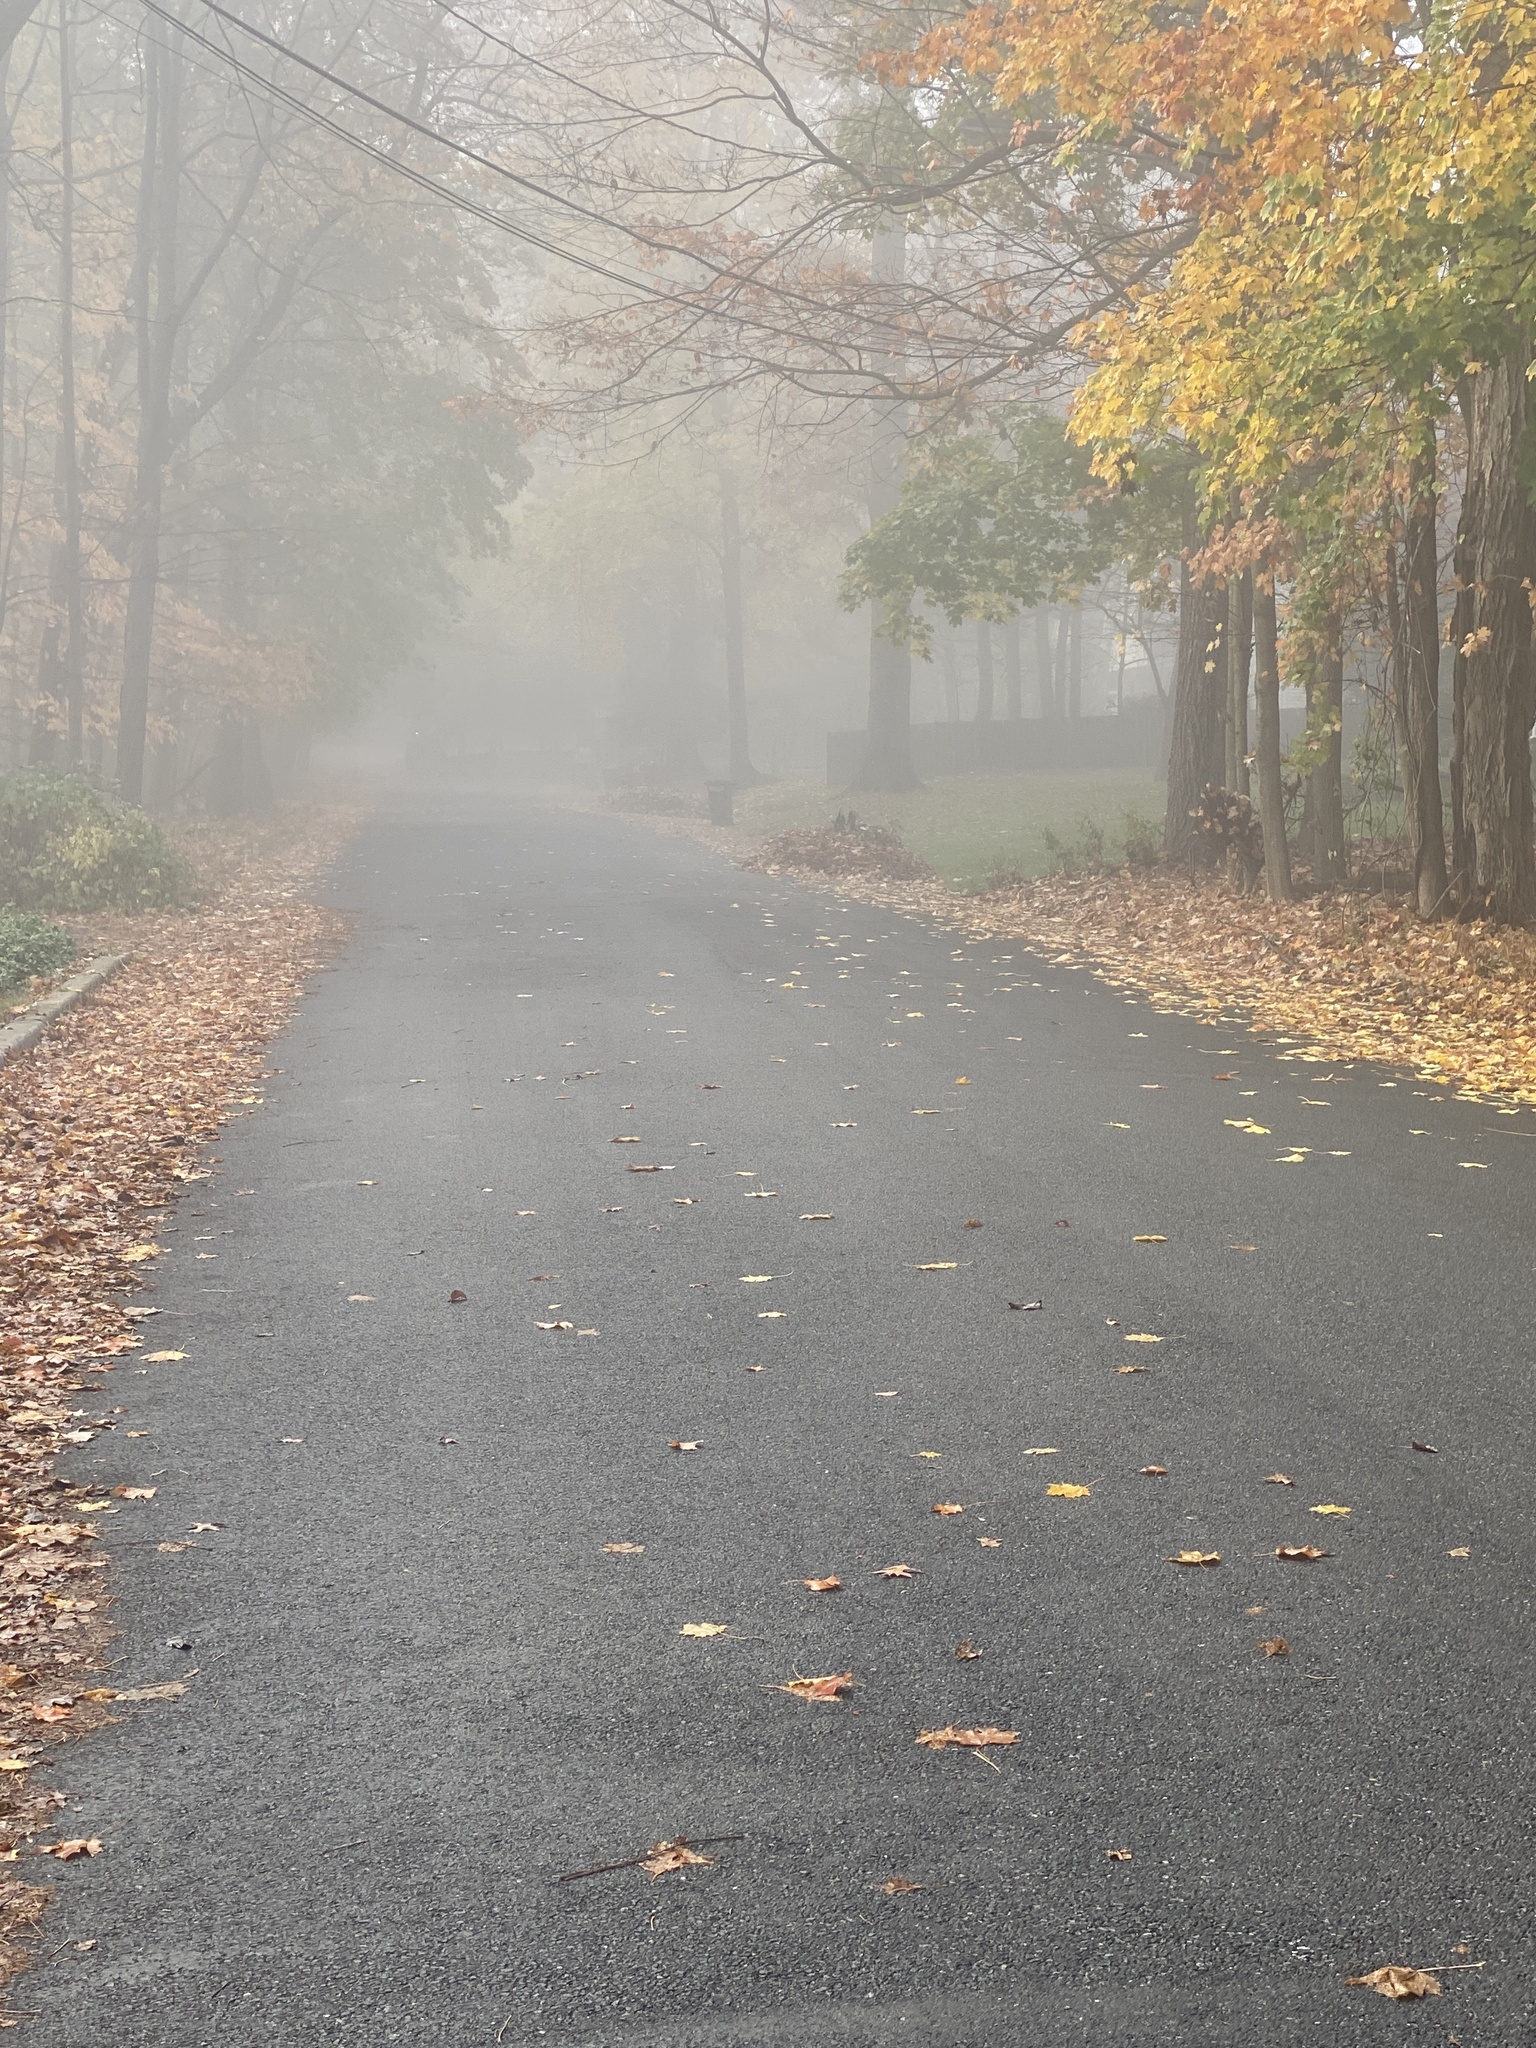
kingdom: Plantae
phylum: Tracheophyta
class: Magnoliopsida
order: Sapindales
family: Sapindaceae
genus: Acer
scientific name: Acer platanoides
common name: Norway maple
